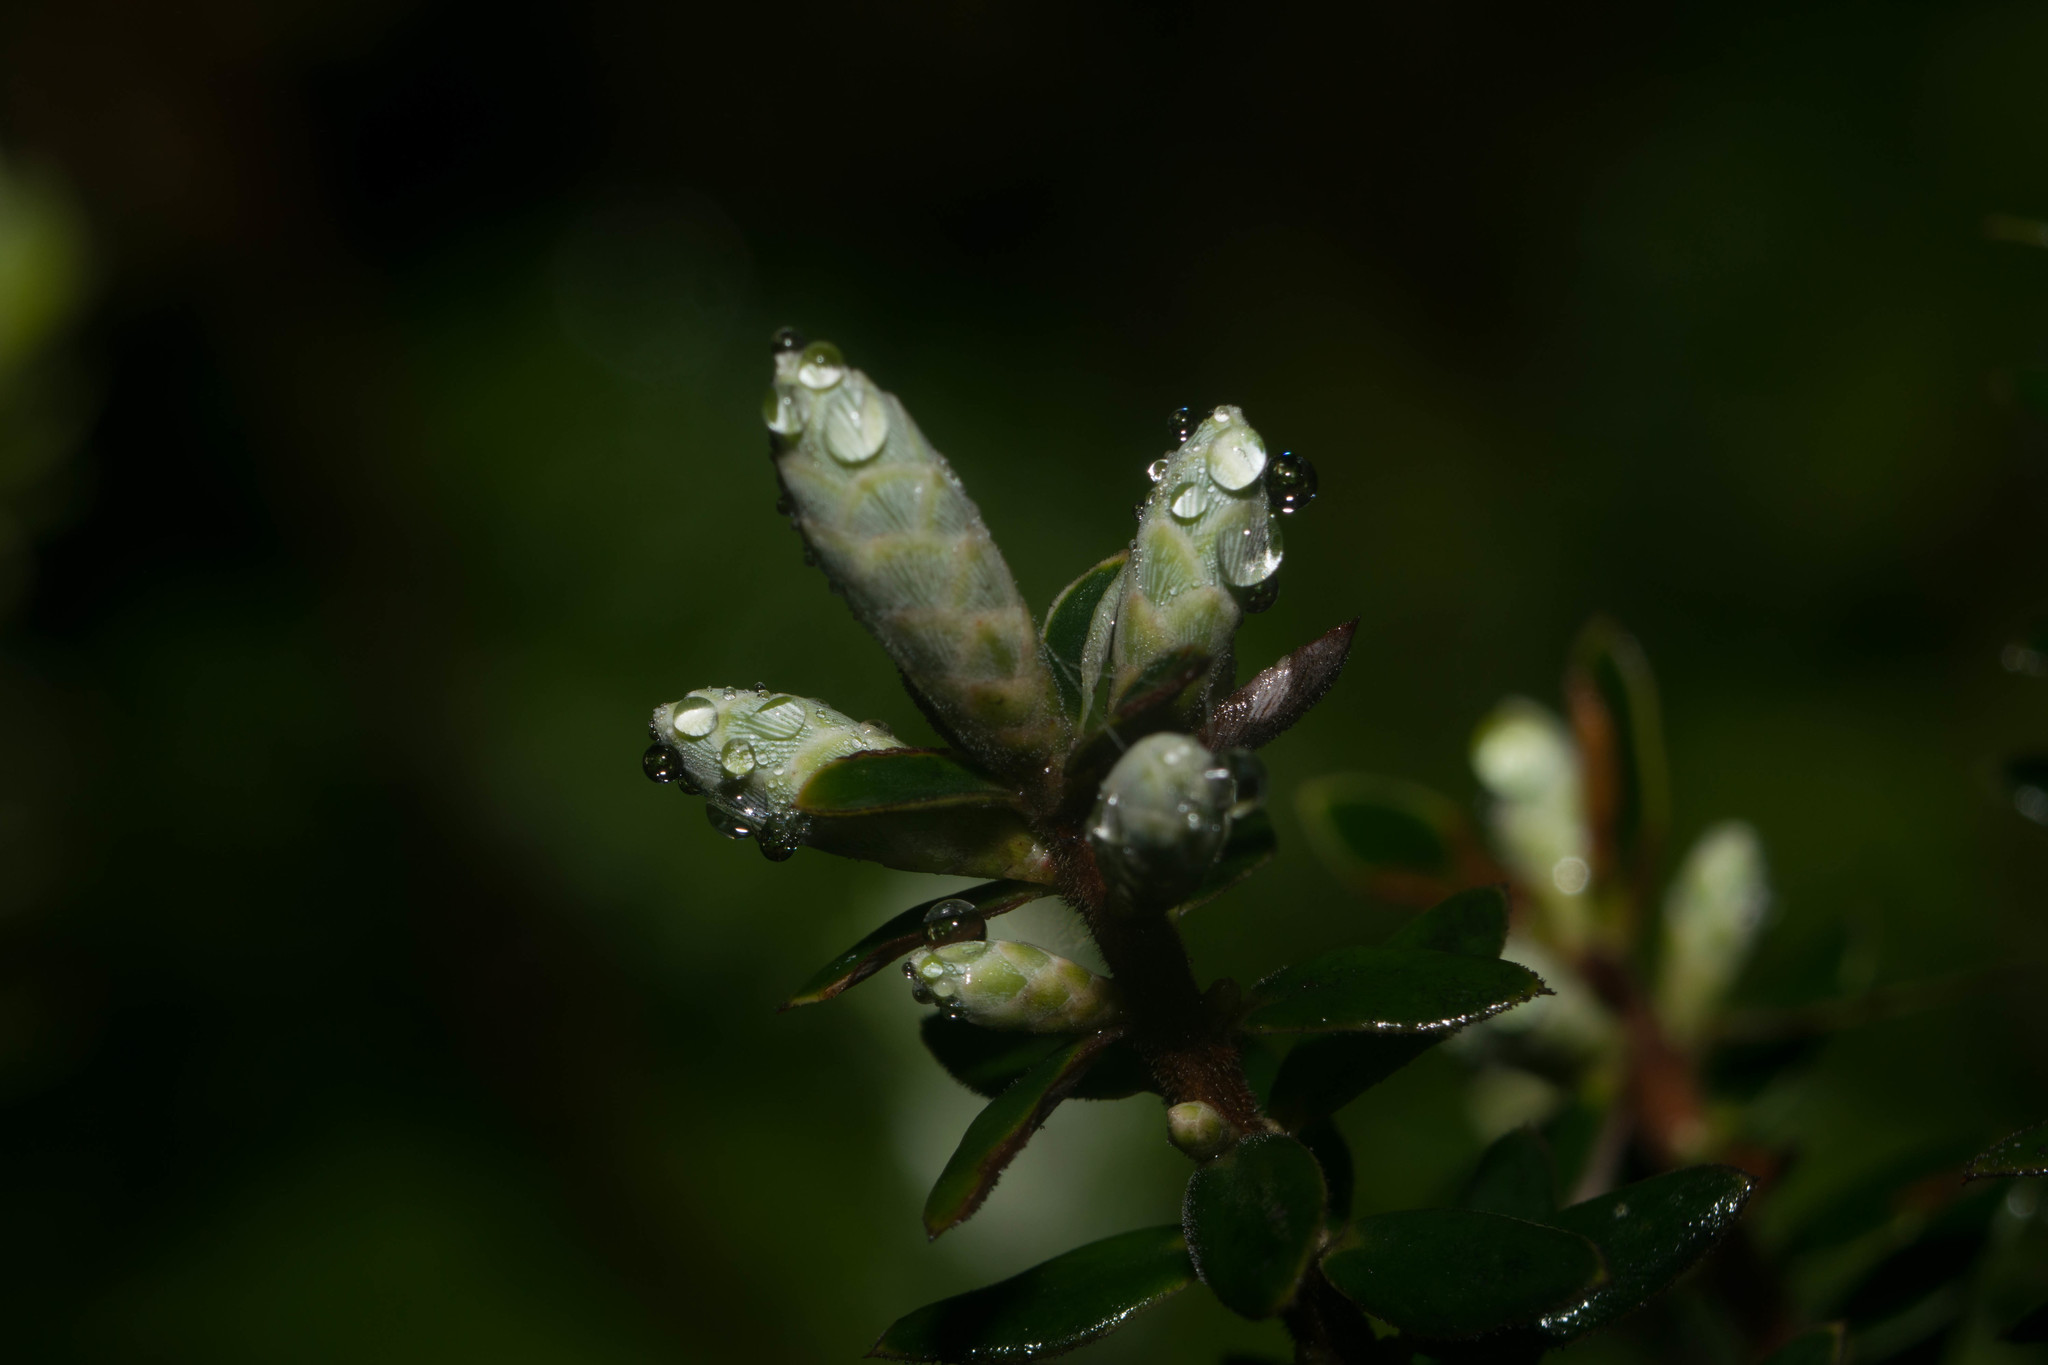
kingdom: Plantae
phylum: Tracheophyta
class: Magnoliopsida
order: Ericales
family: Ericaceae
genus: Leptecophylla
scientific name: Leptecophylla tameiameiae
